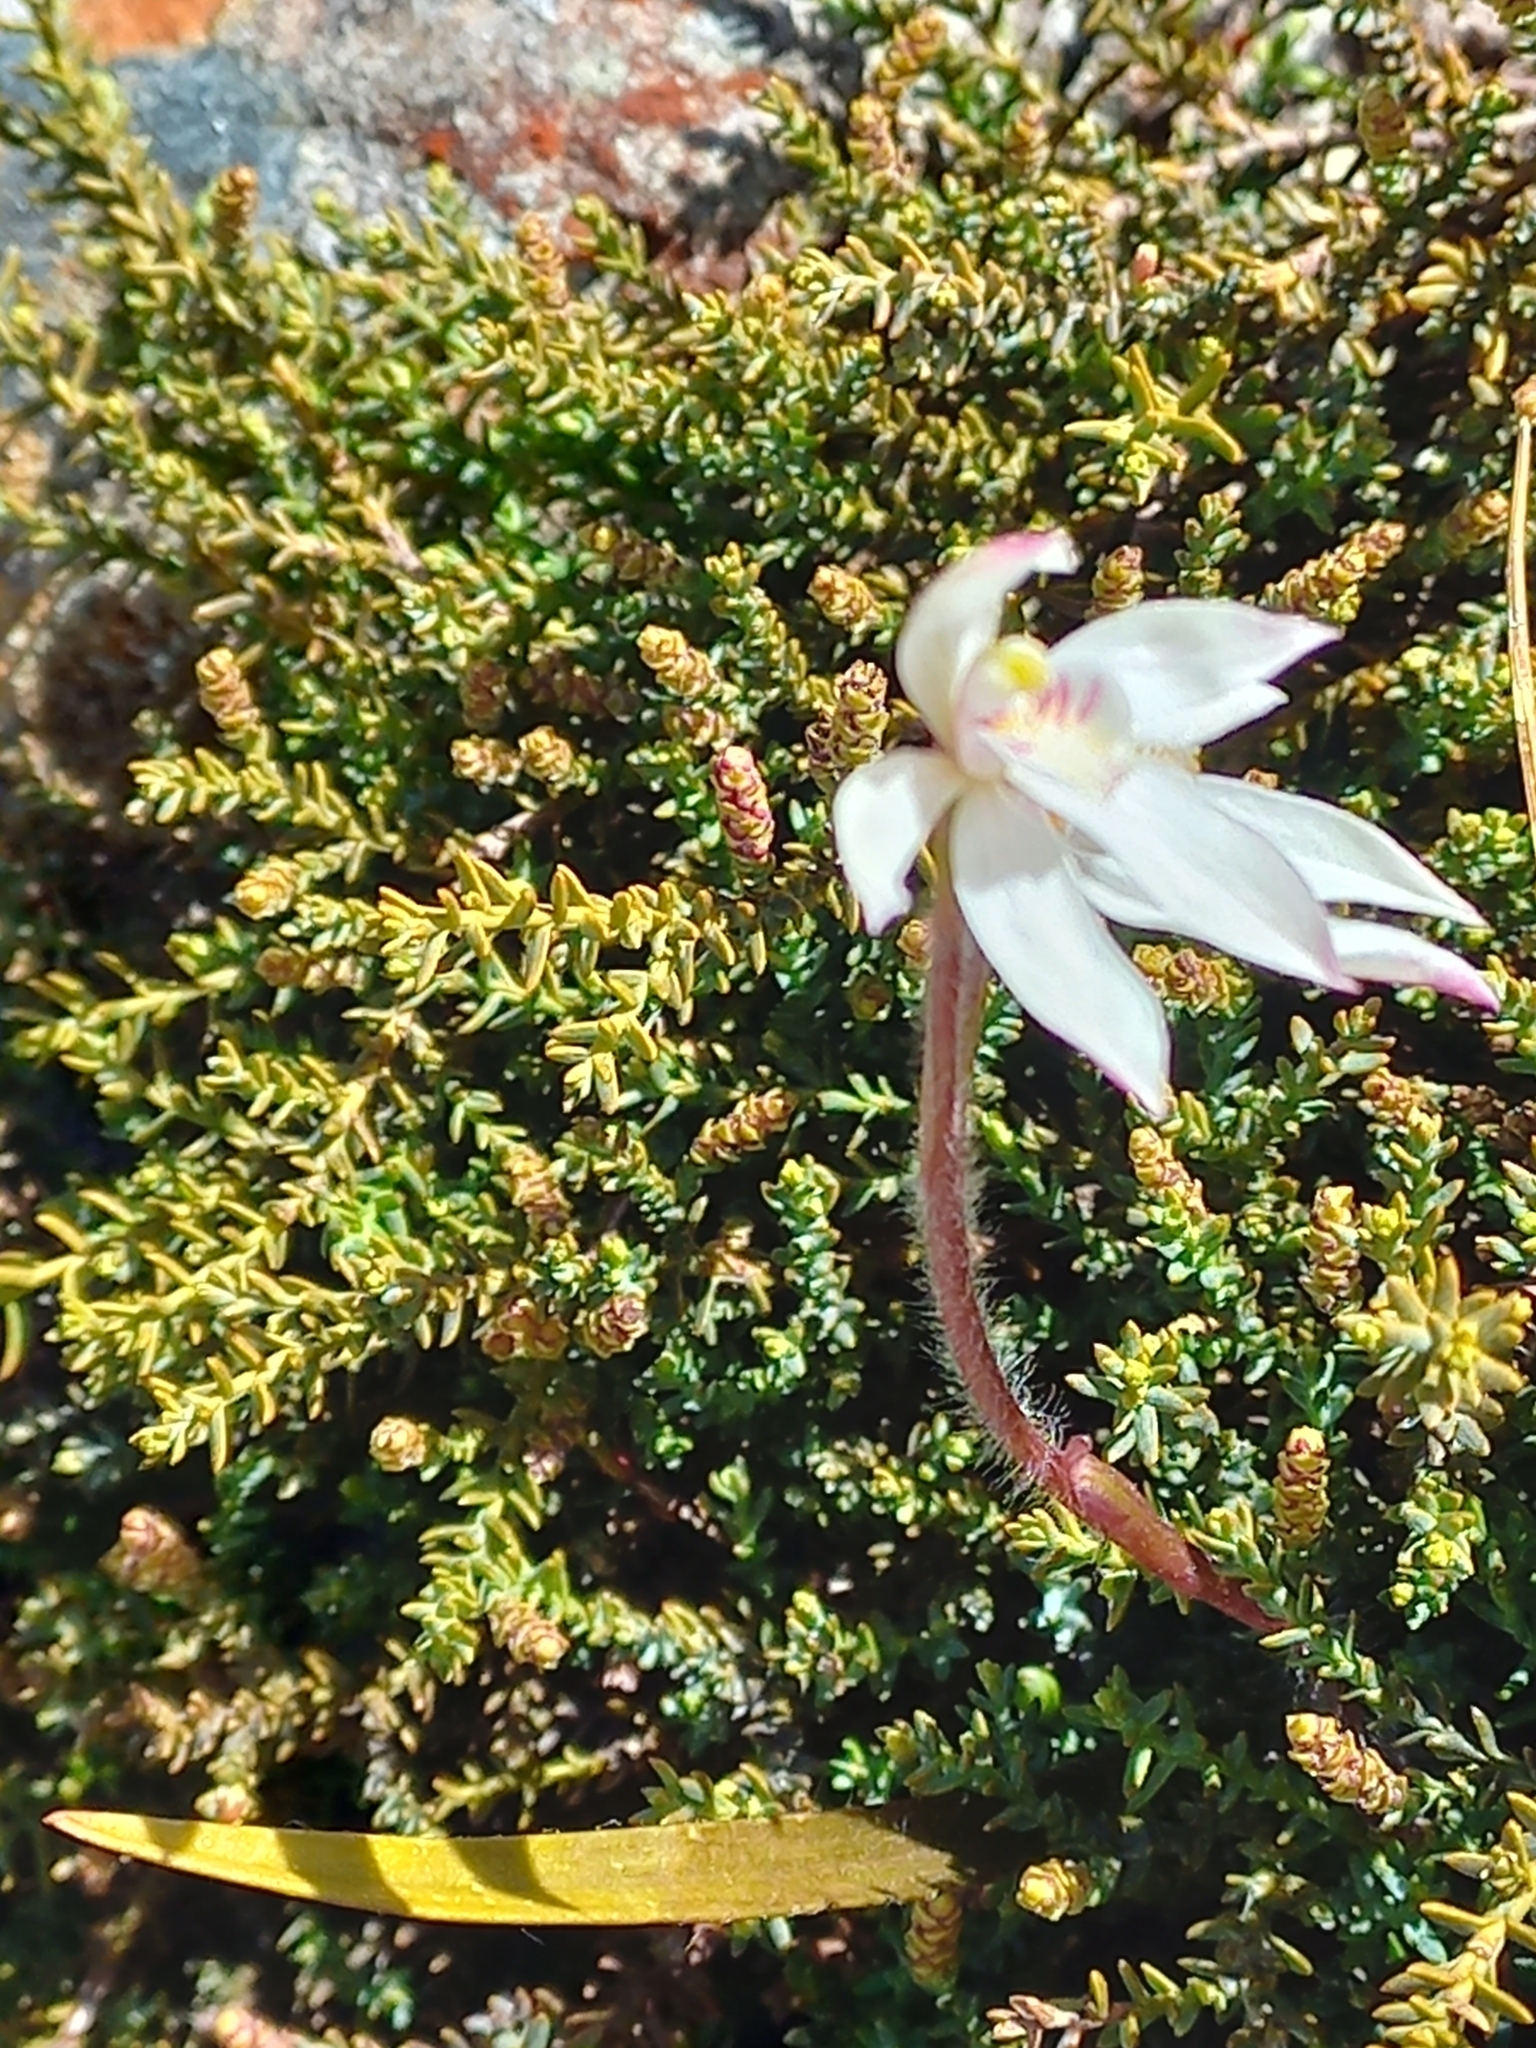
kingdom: Plantae
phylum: Tracheophyta
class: Liliopsida
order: Asparagales
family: Orchidaceae
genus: Caladenia
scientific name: Caladenia lyallii
